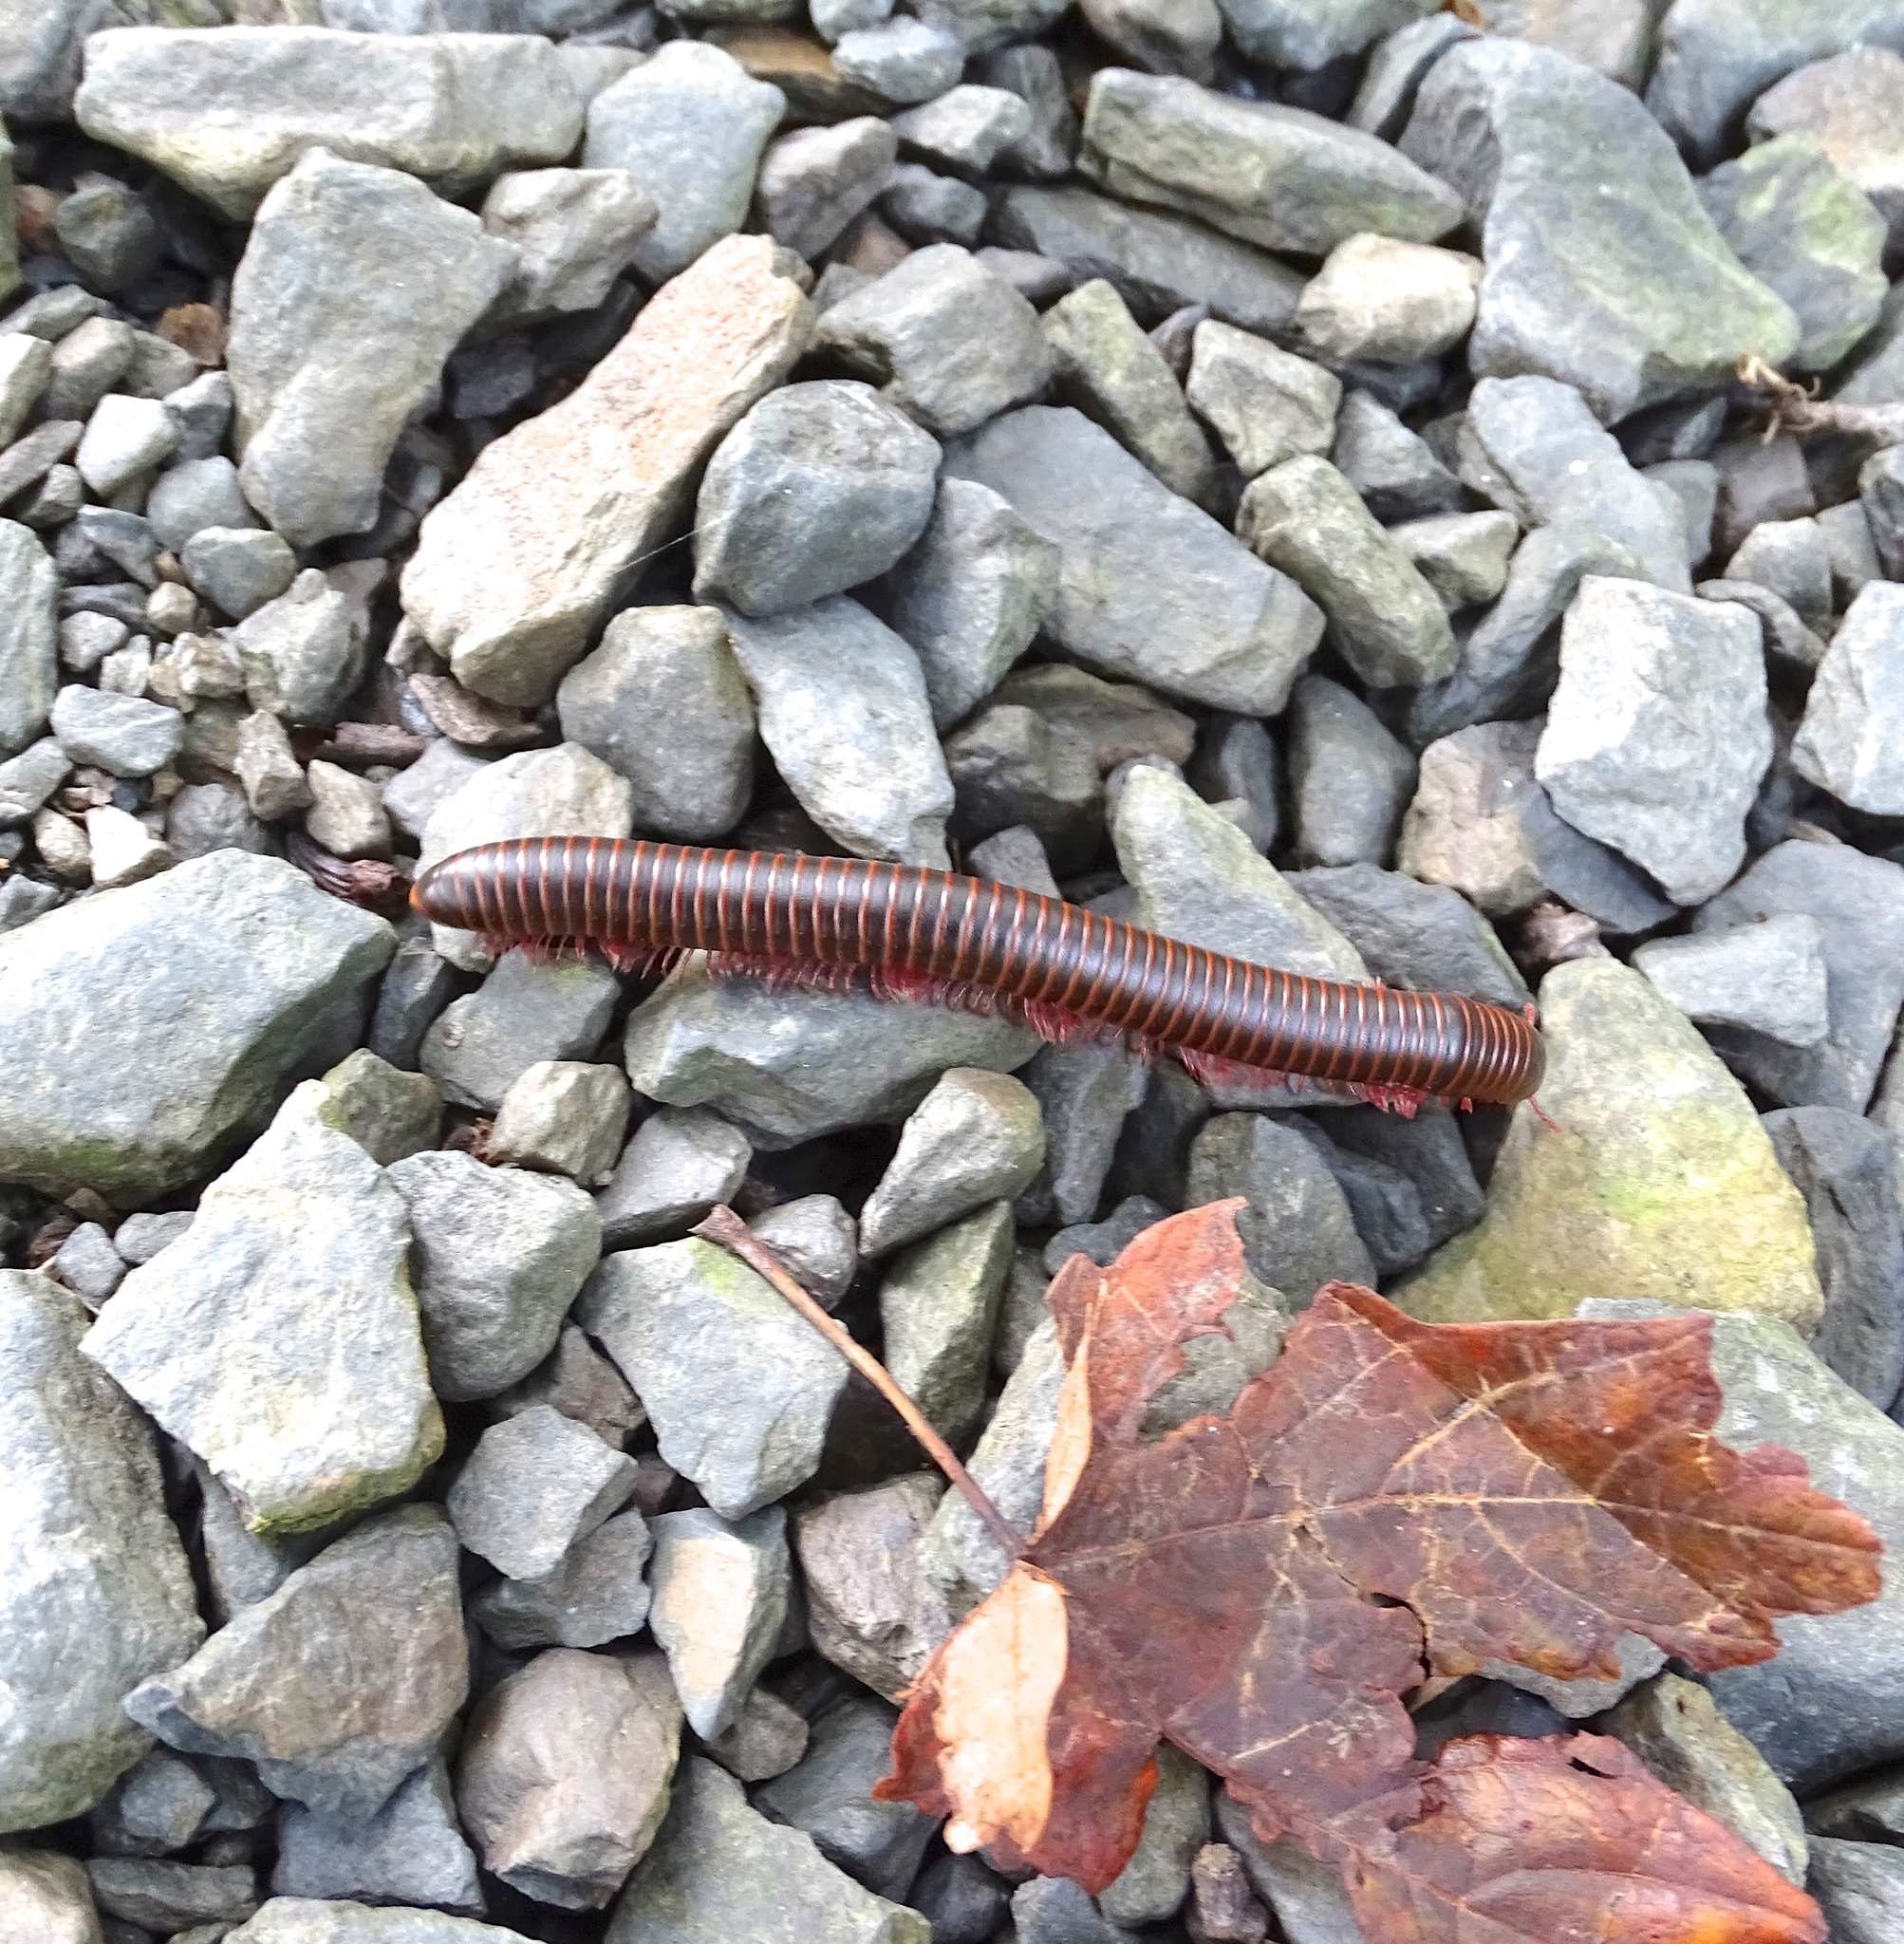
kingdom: Animalia
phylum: Arthropoda
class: Diplopoda
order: Spirobolida
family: Spirobolidae
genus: Narceus
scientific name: Narceus
